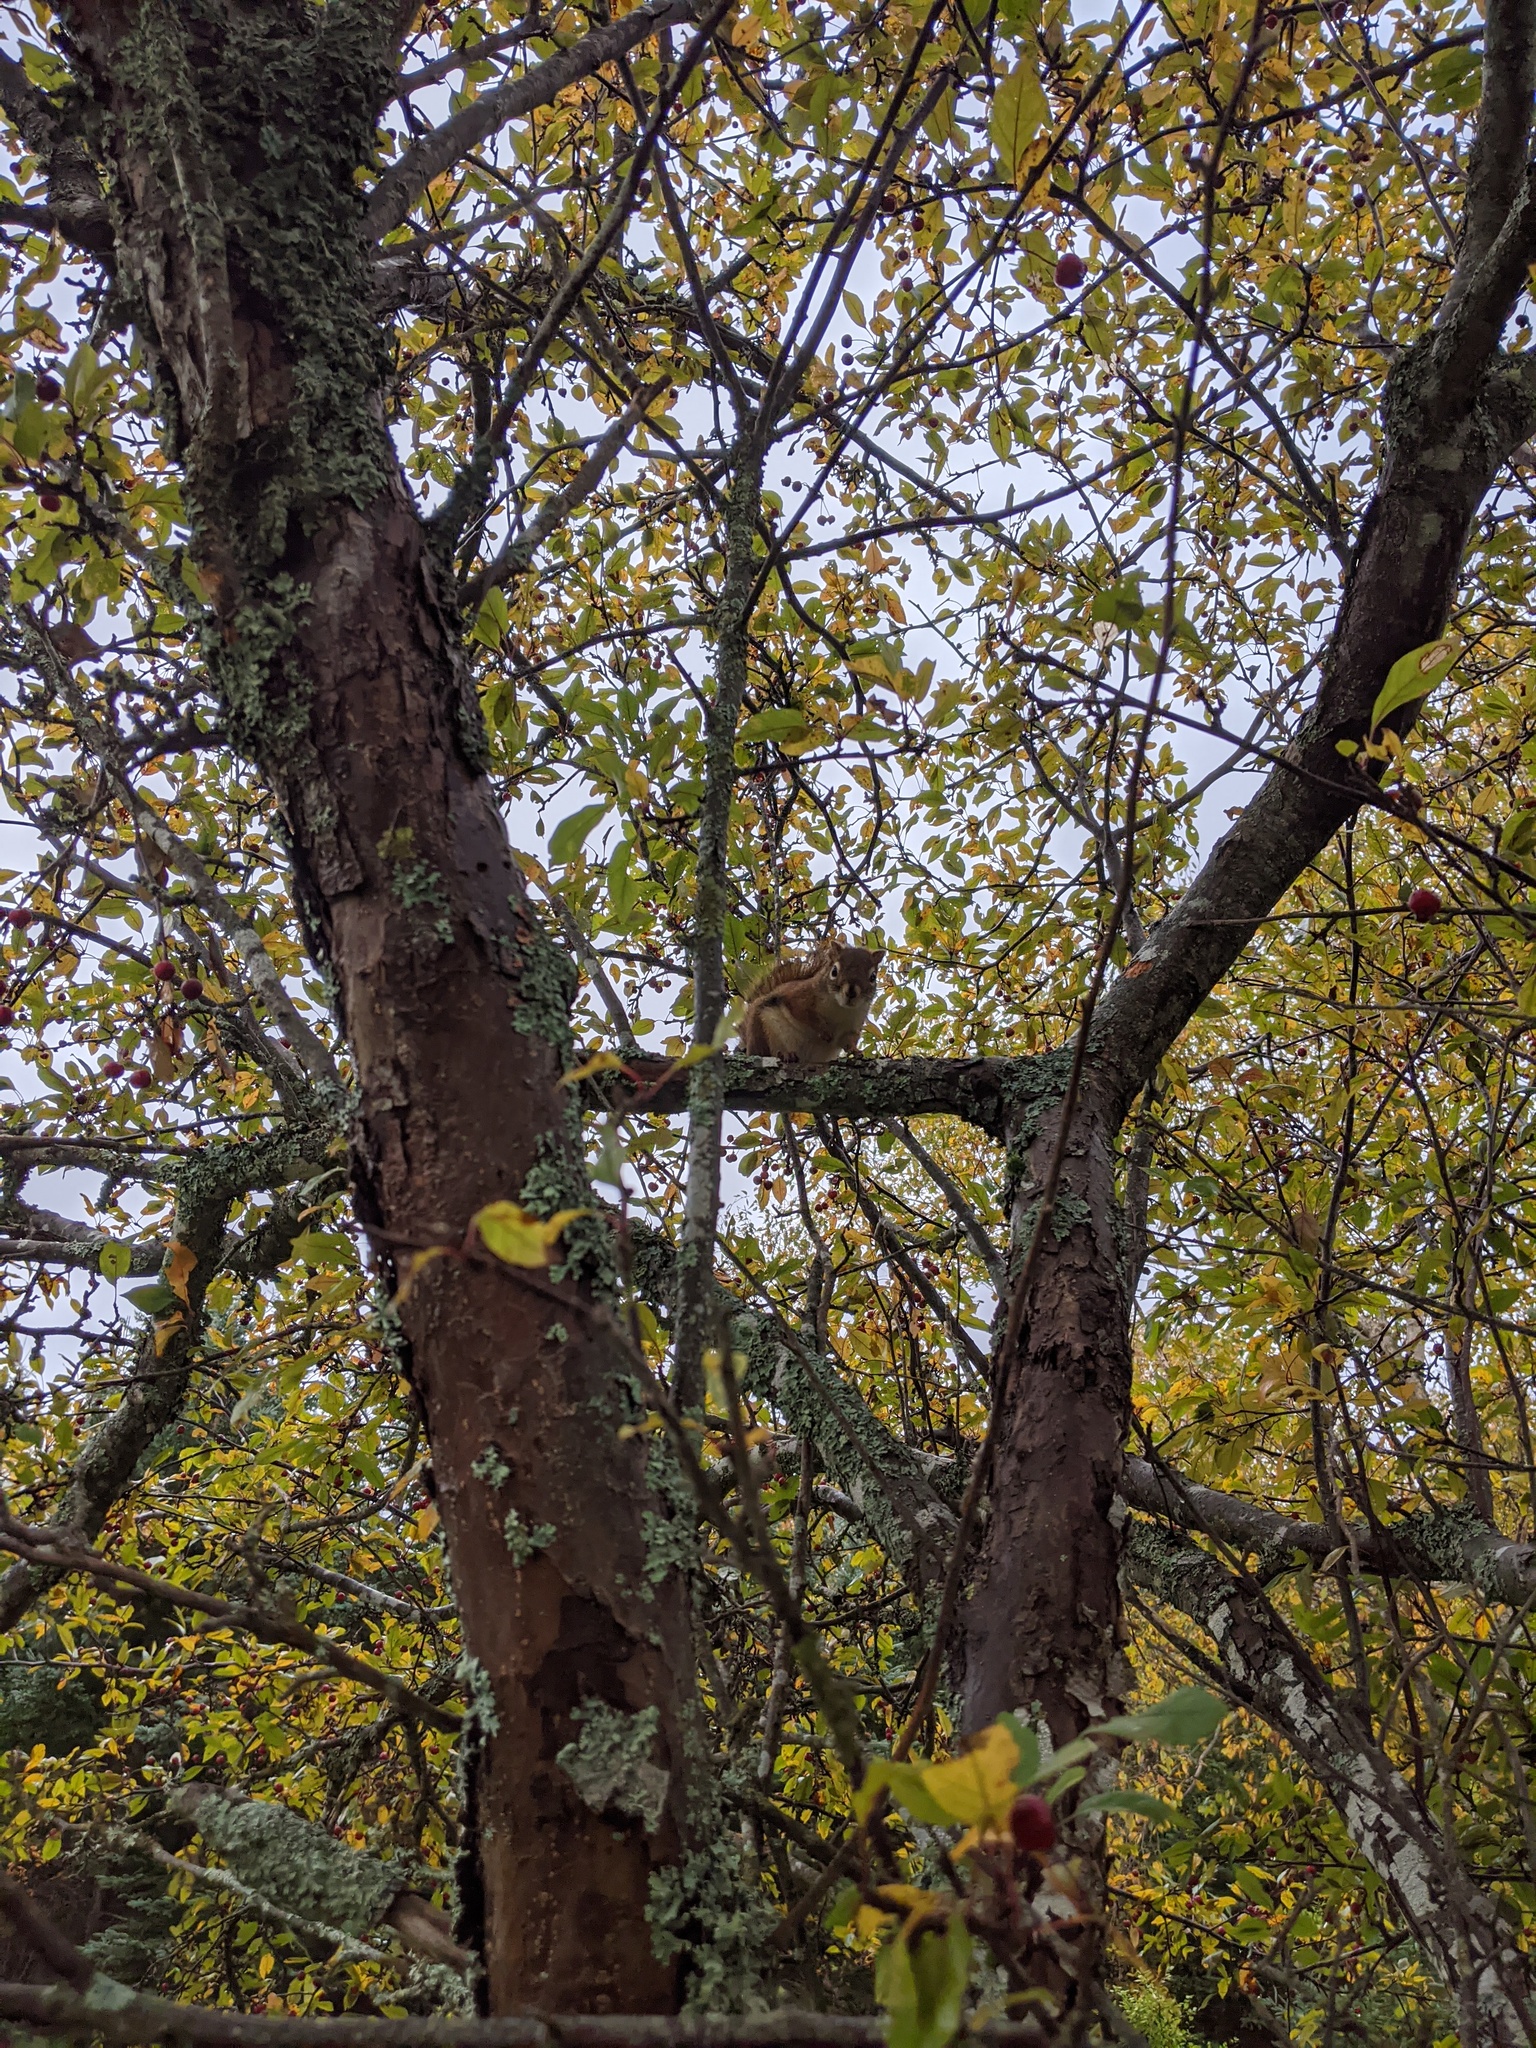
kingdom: Animalia
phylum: Chordata
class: Mammalia
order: Rodentia
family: Sciuridae
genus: Tamiasciurus
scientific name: Tamiasciurus hudsonicus
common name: Red squirrel
